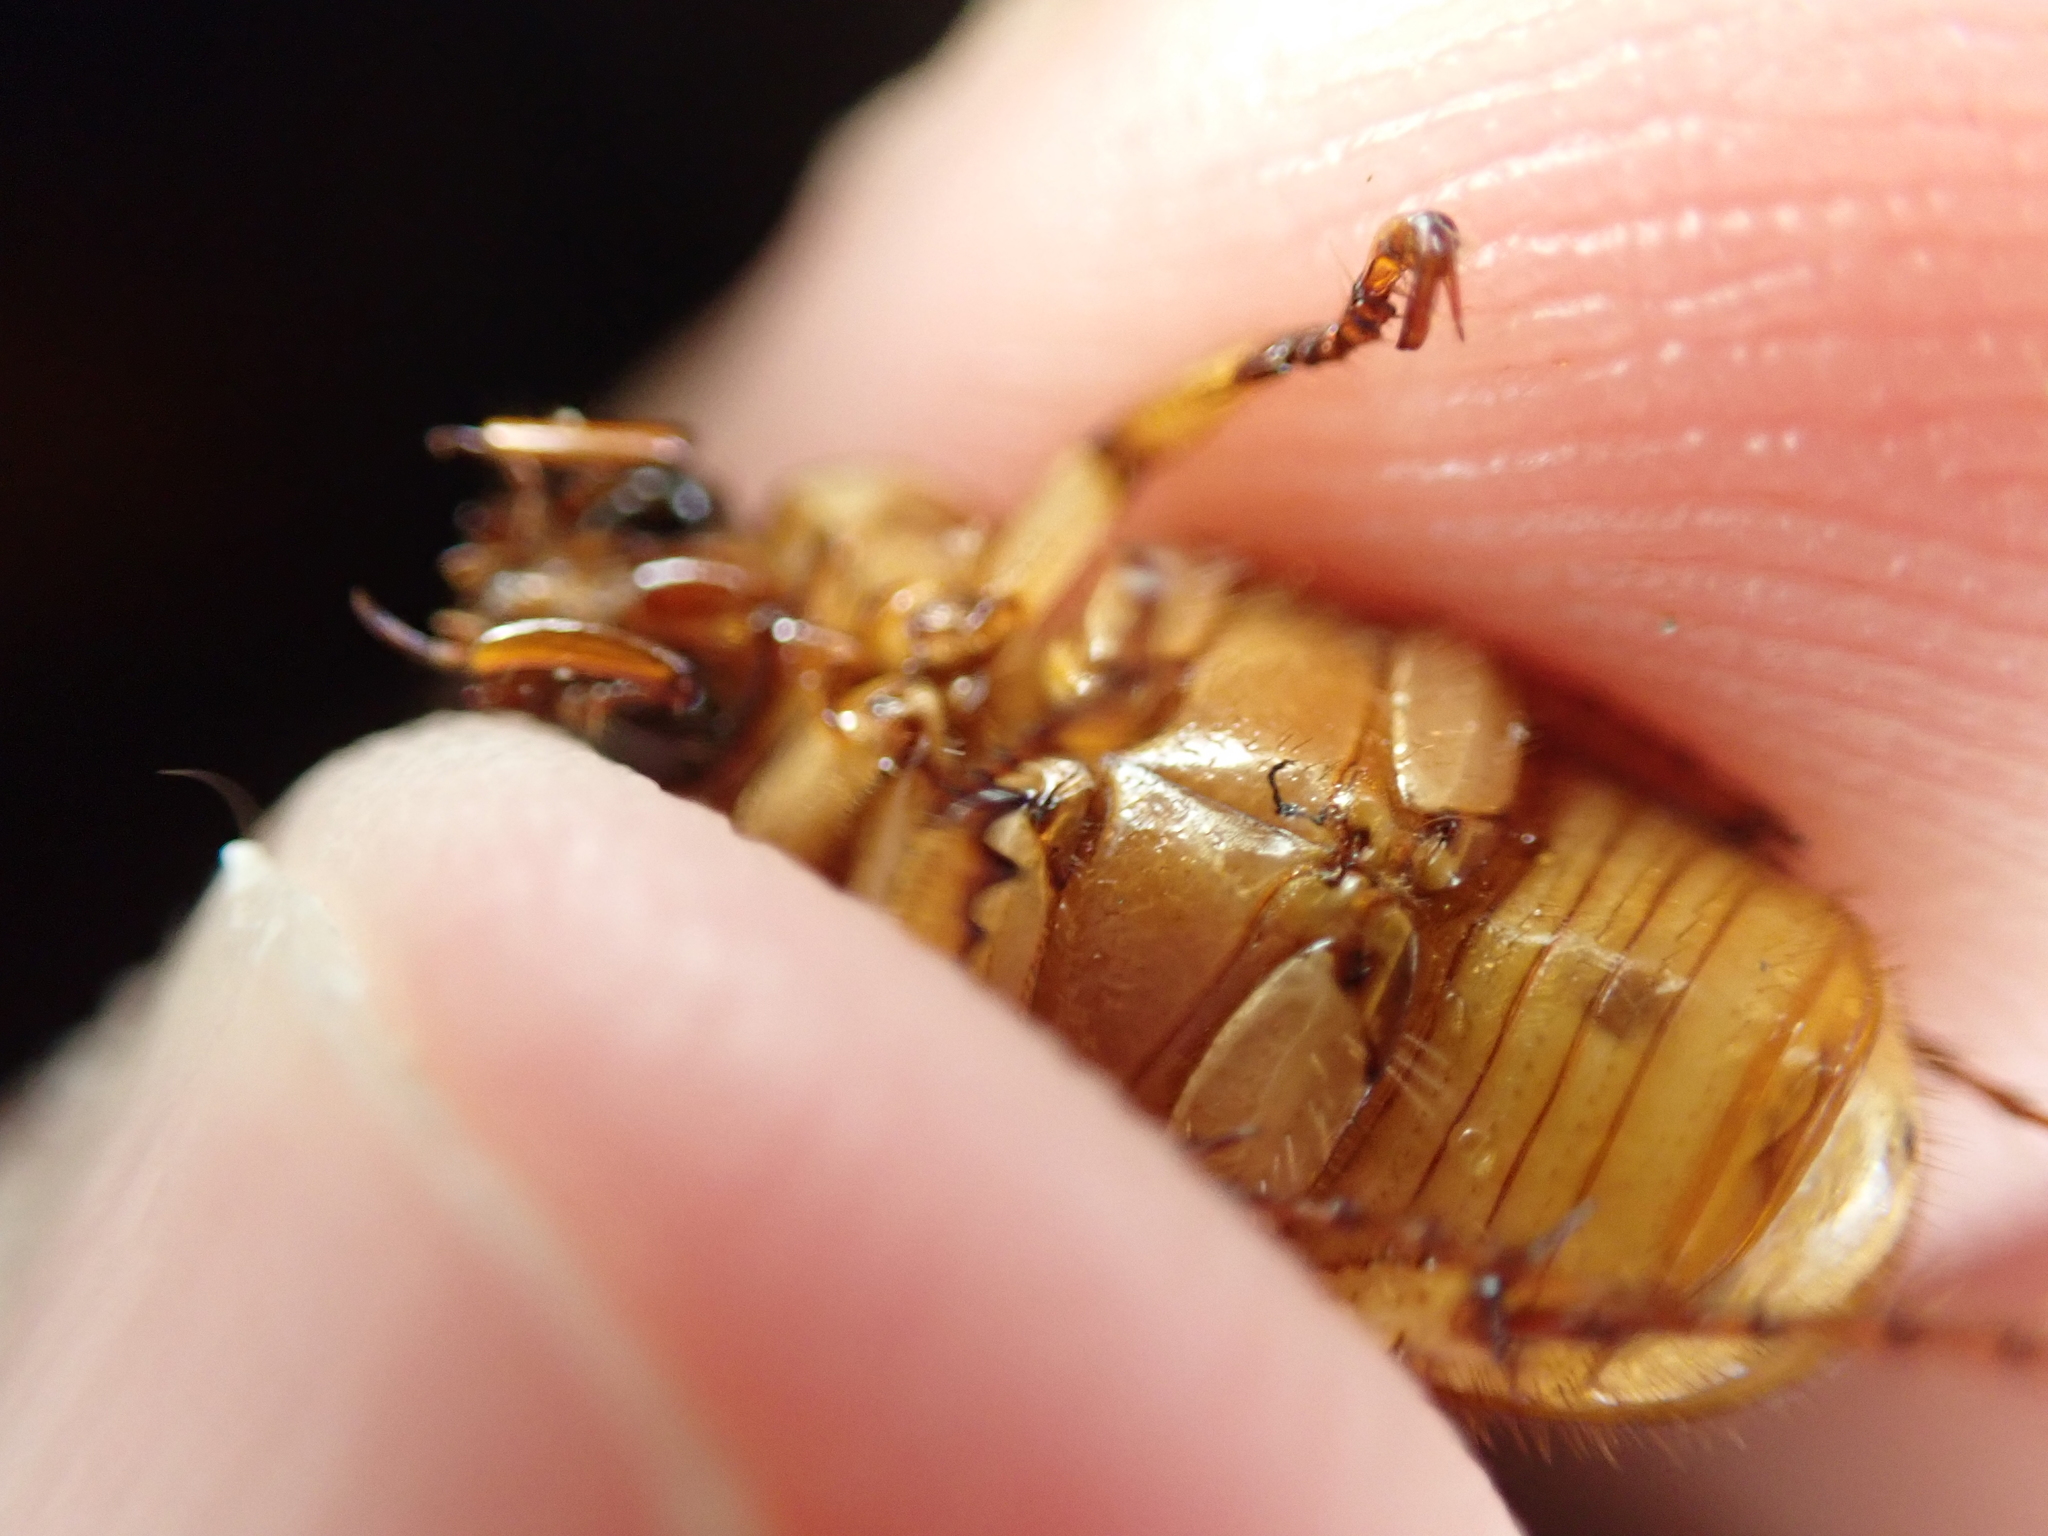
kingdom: Animalia
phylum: Arthropoda
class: Insecta
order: Coleoptera
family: Scarabaeidae
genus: Cyclocephala
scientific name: Cyclocephala lurida
